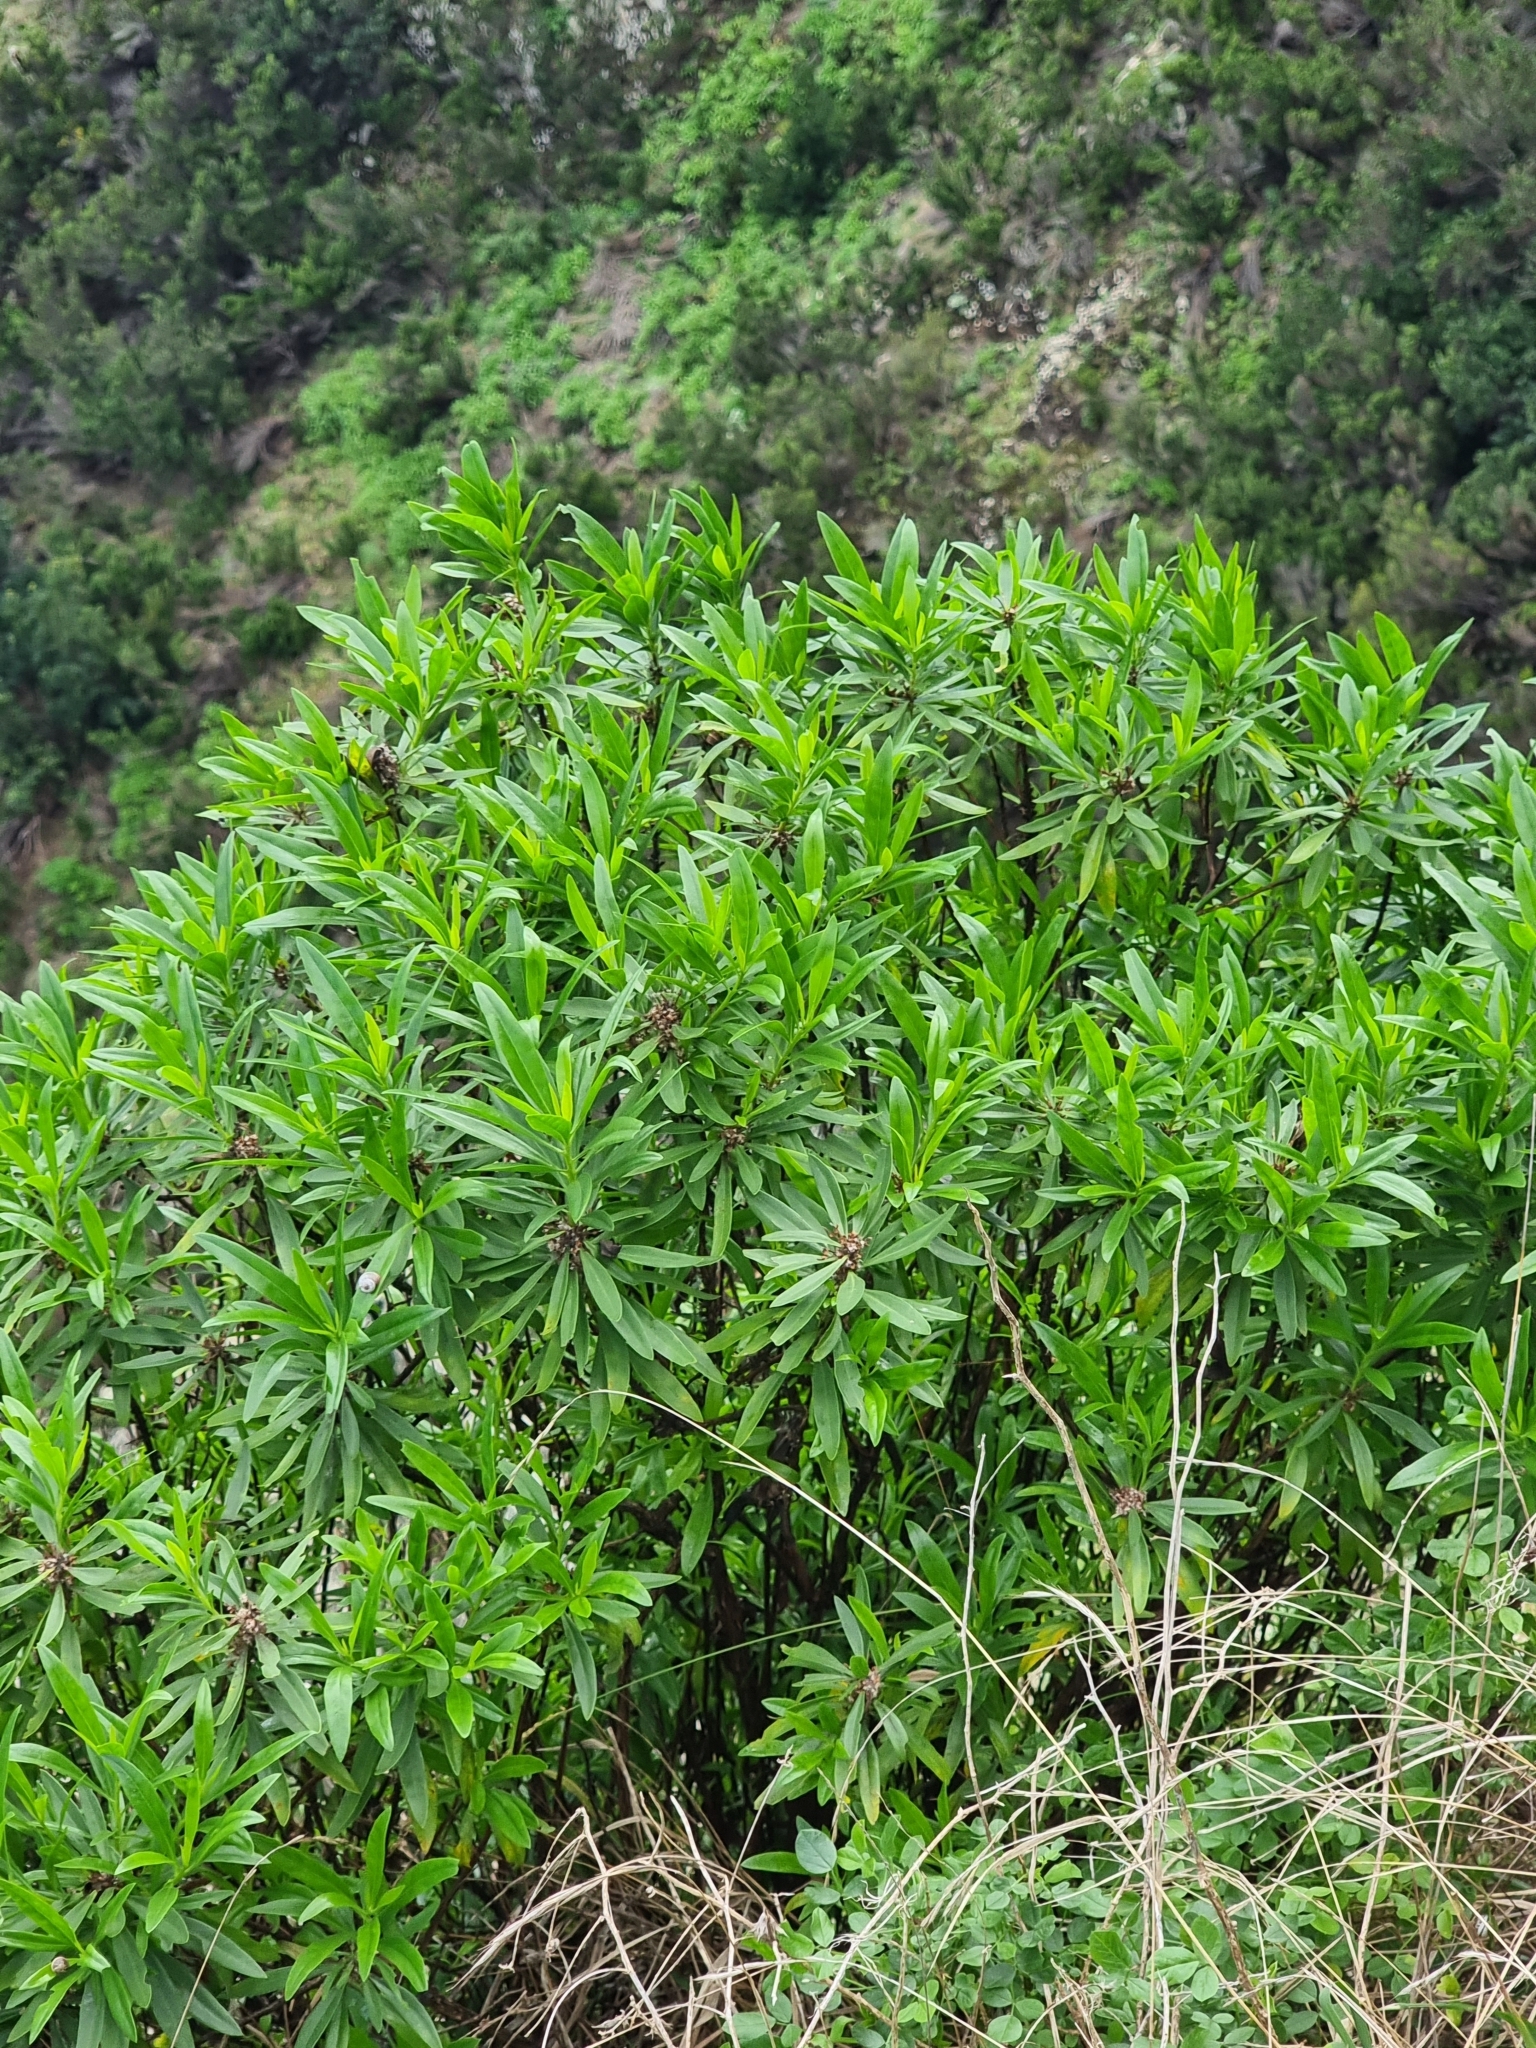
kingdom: Plantae
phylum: Tracheophyta
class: Magnoliopsida
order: Lamiales
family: Plantaginaceae
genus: Globularia
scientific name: Globularia salicina
